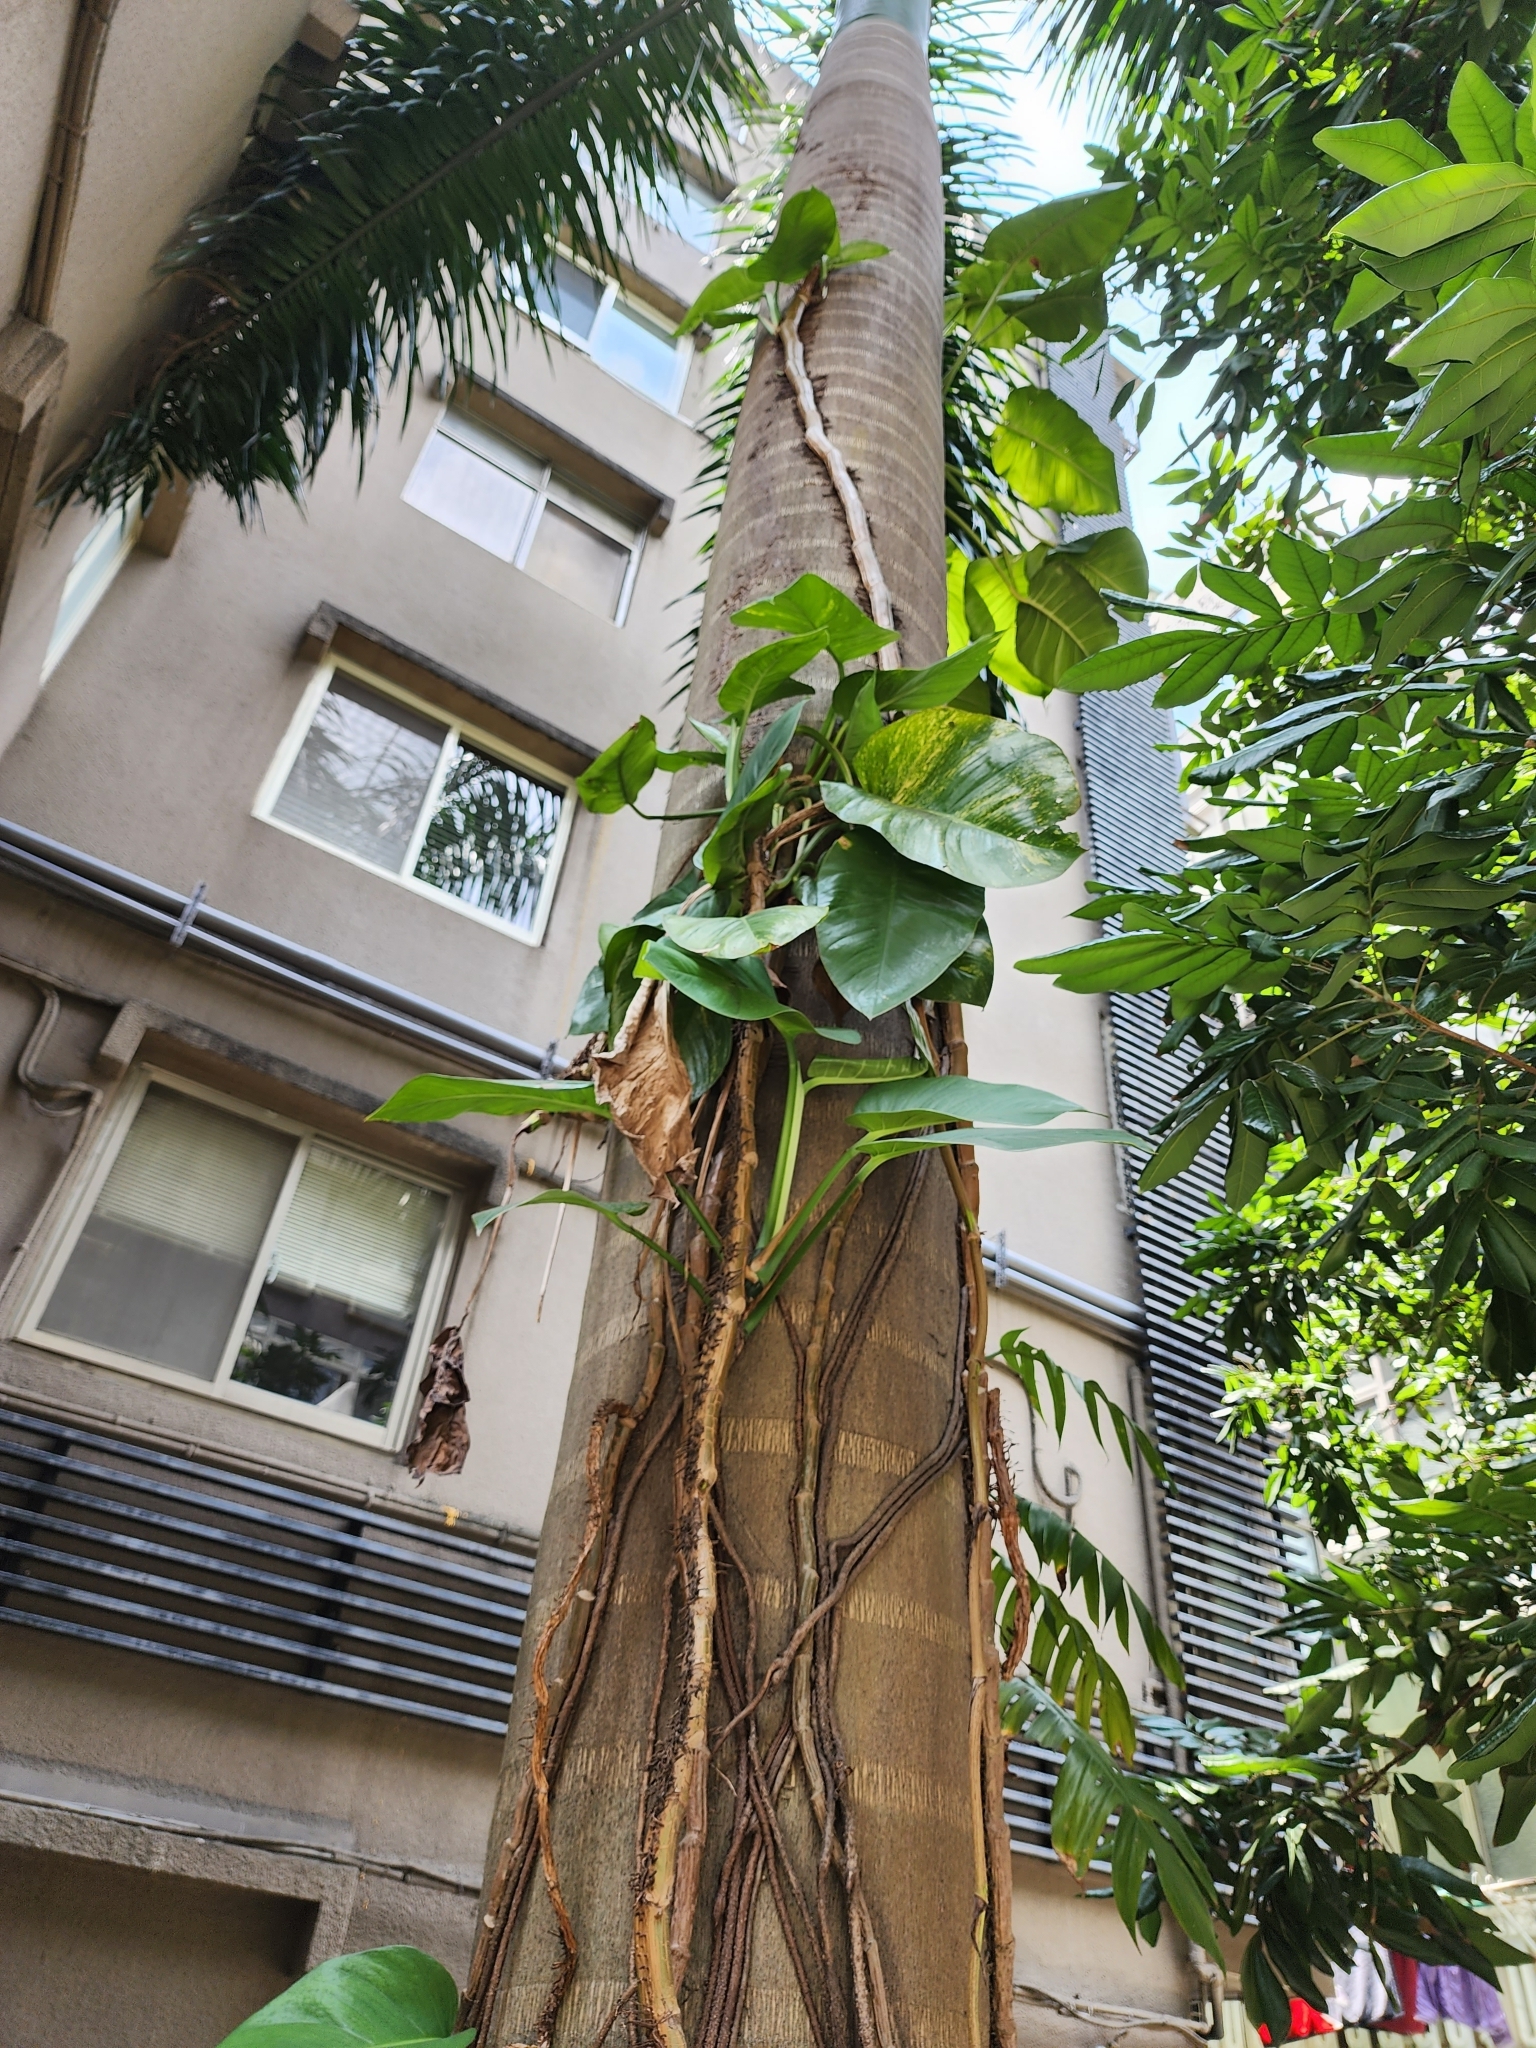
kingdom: Plantae
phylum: Tracheophyta
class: Liliopsida
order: Alismatales
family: Araceae
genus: Epipremnum
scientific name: Epipremnum aureum
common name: Golden hunter's-robe
